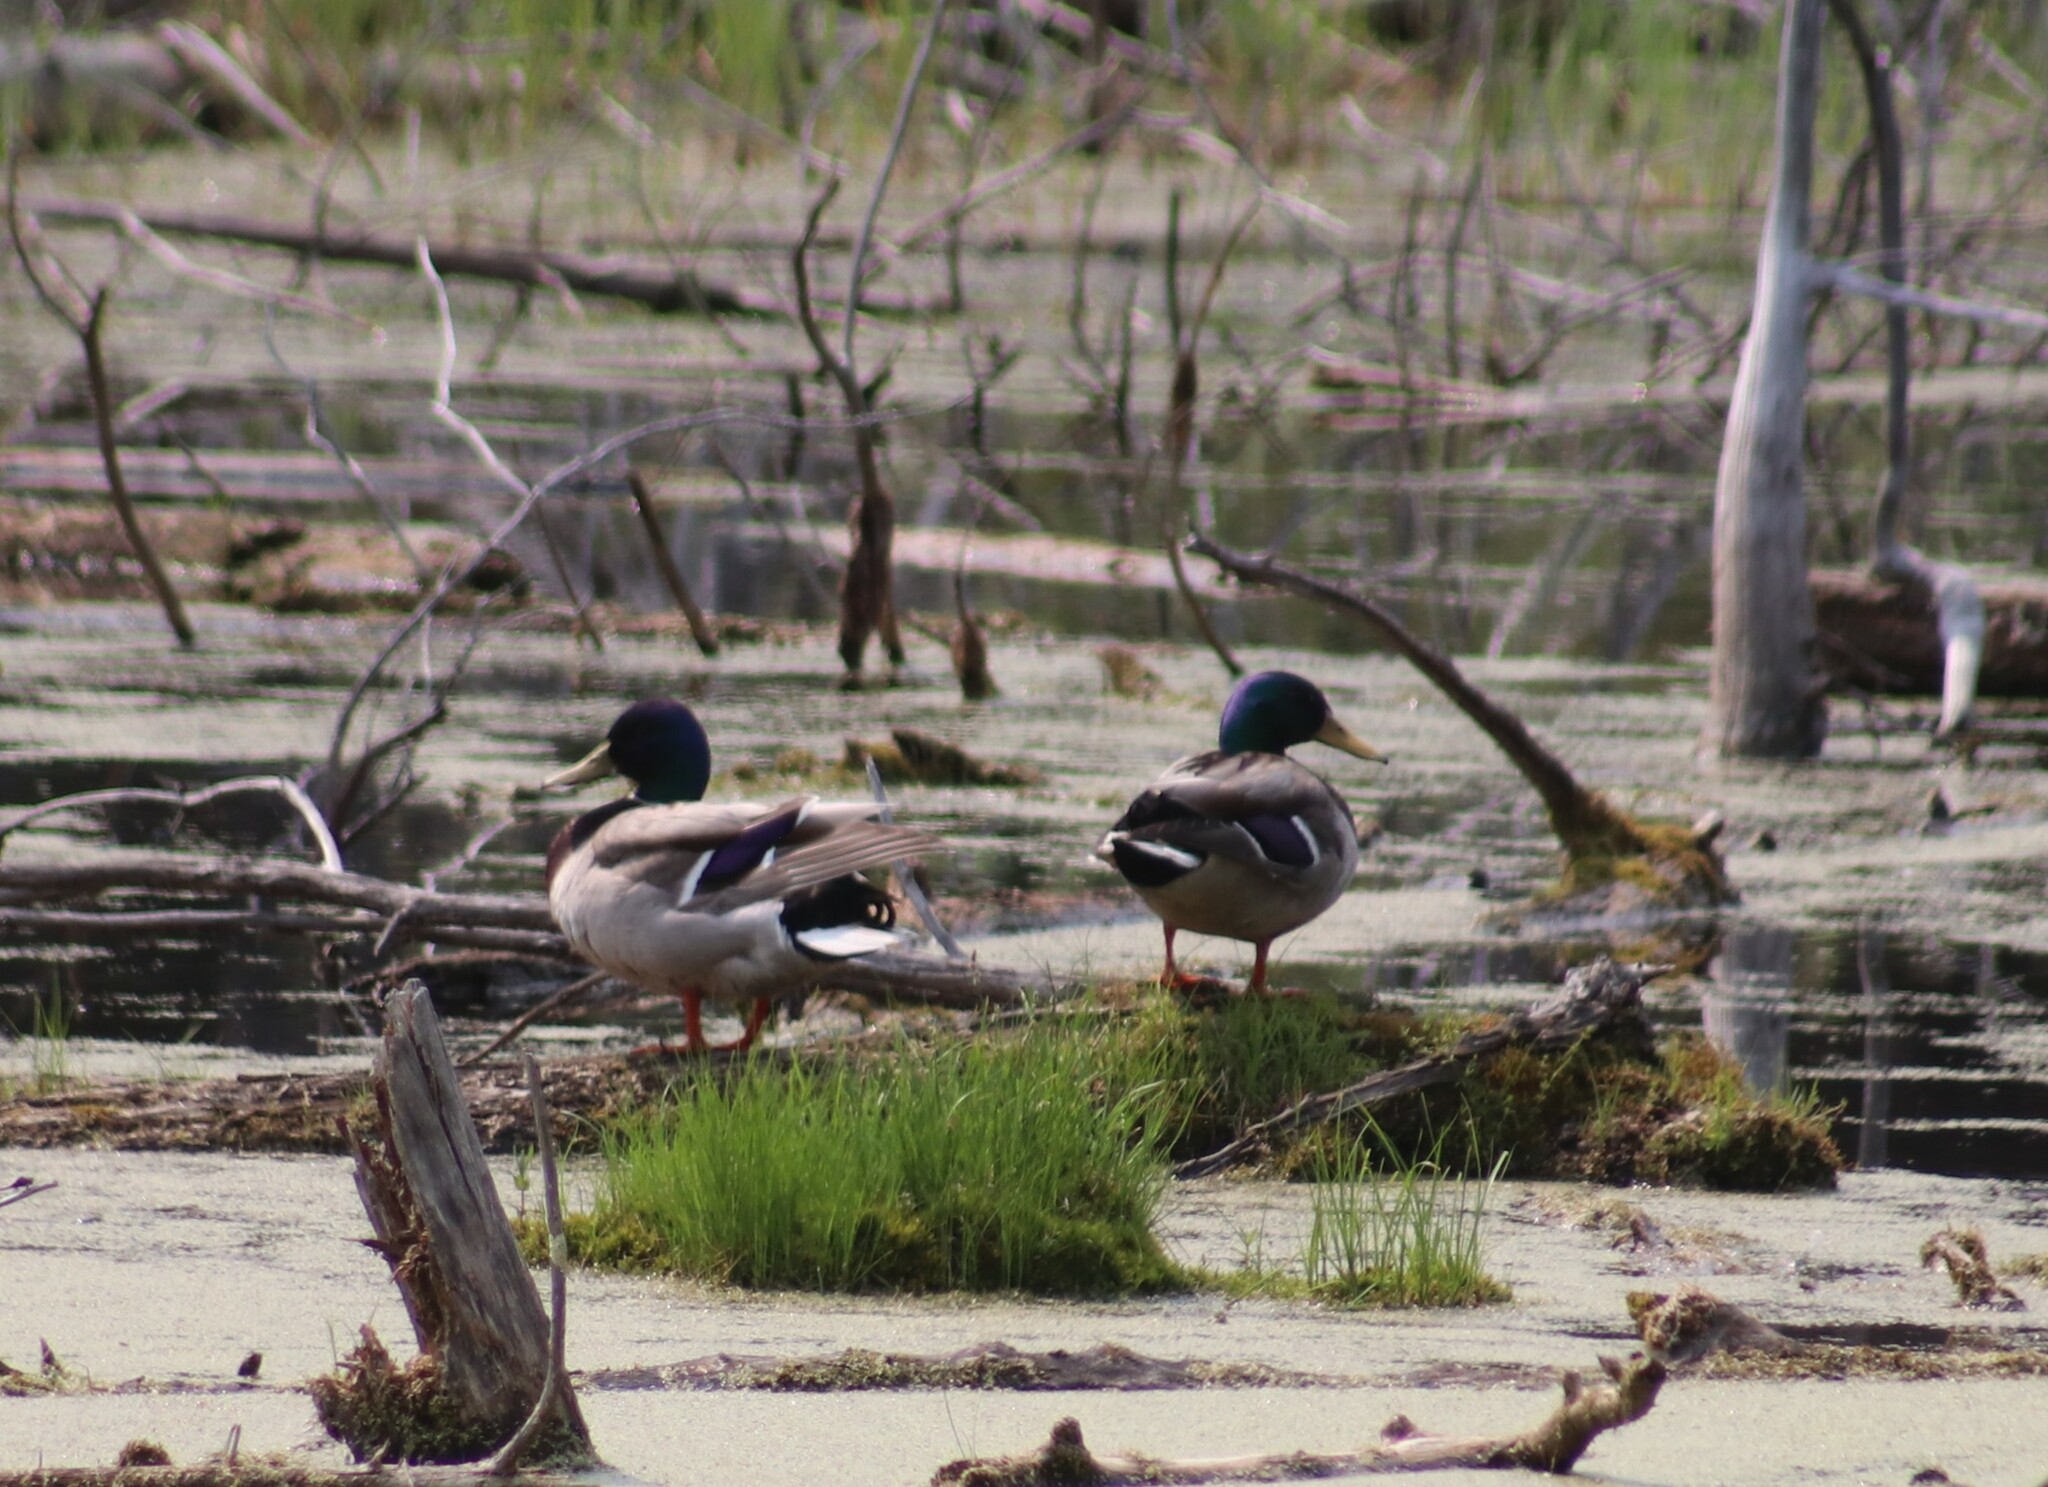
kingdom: Animalia
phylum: Chordata
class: Aves
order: Anseriformes
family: Anatidae
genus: Anas
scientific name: Anas platyrhynchos
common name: Mallard
